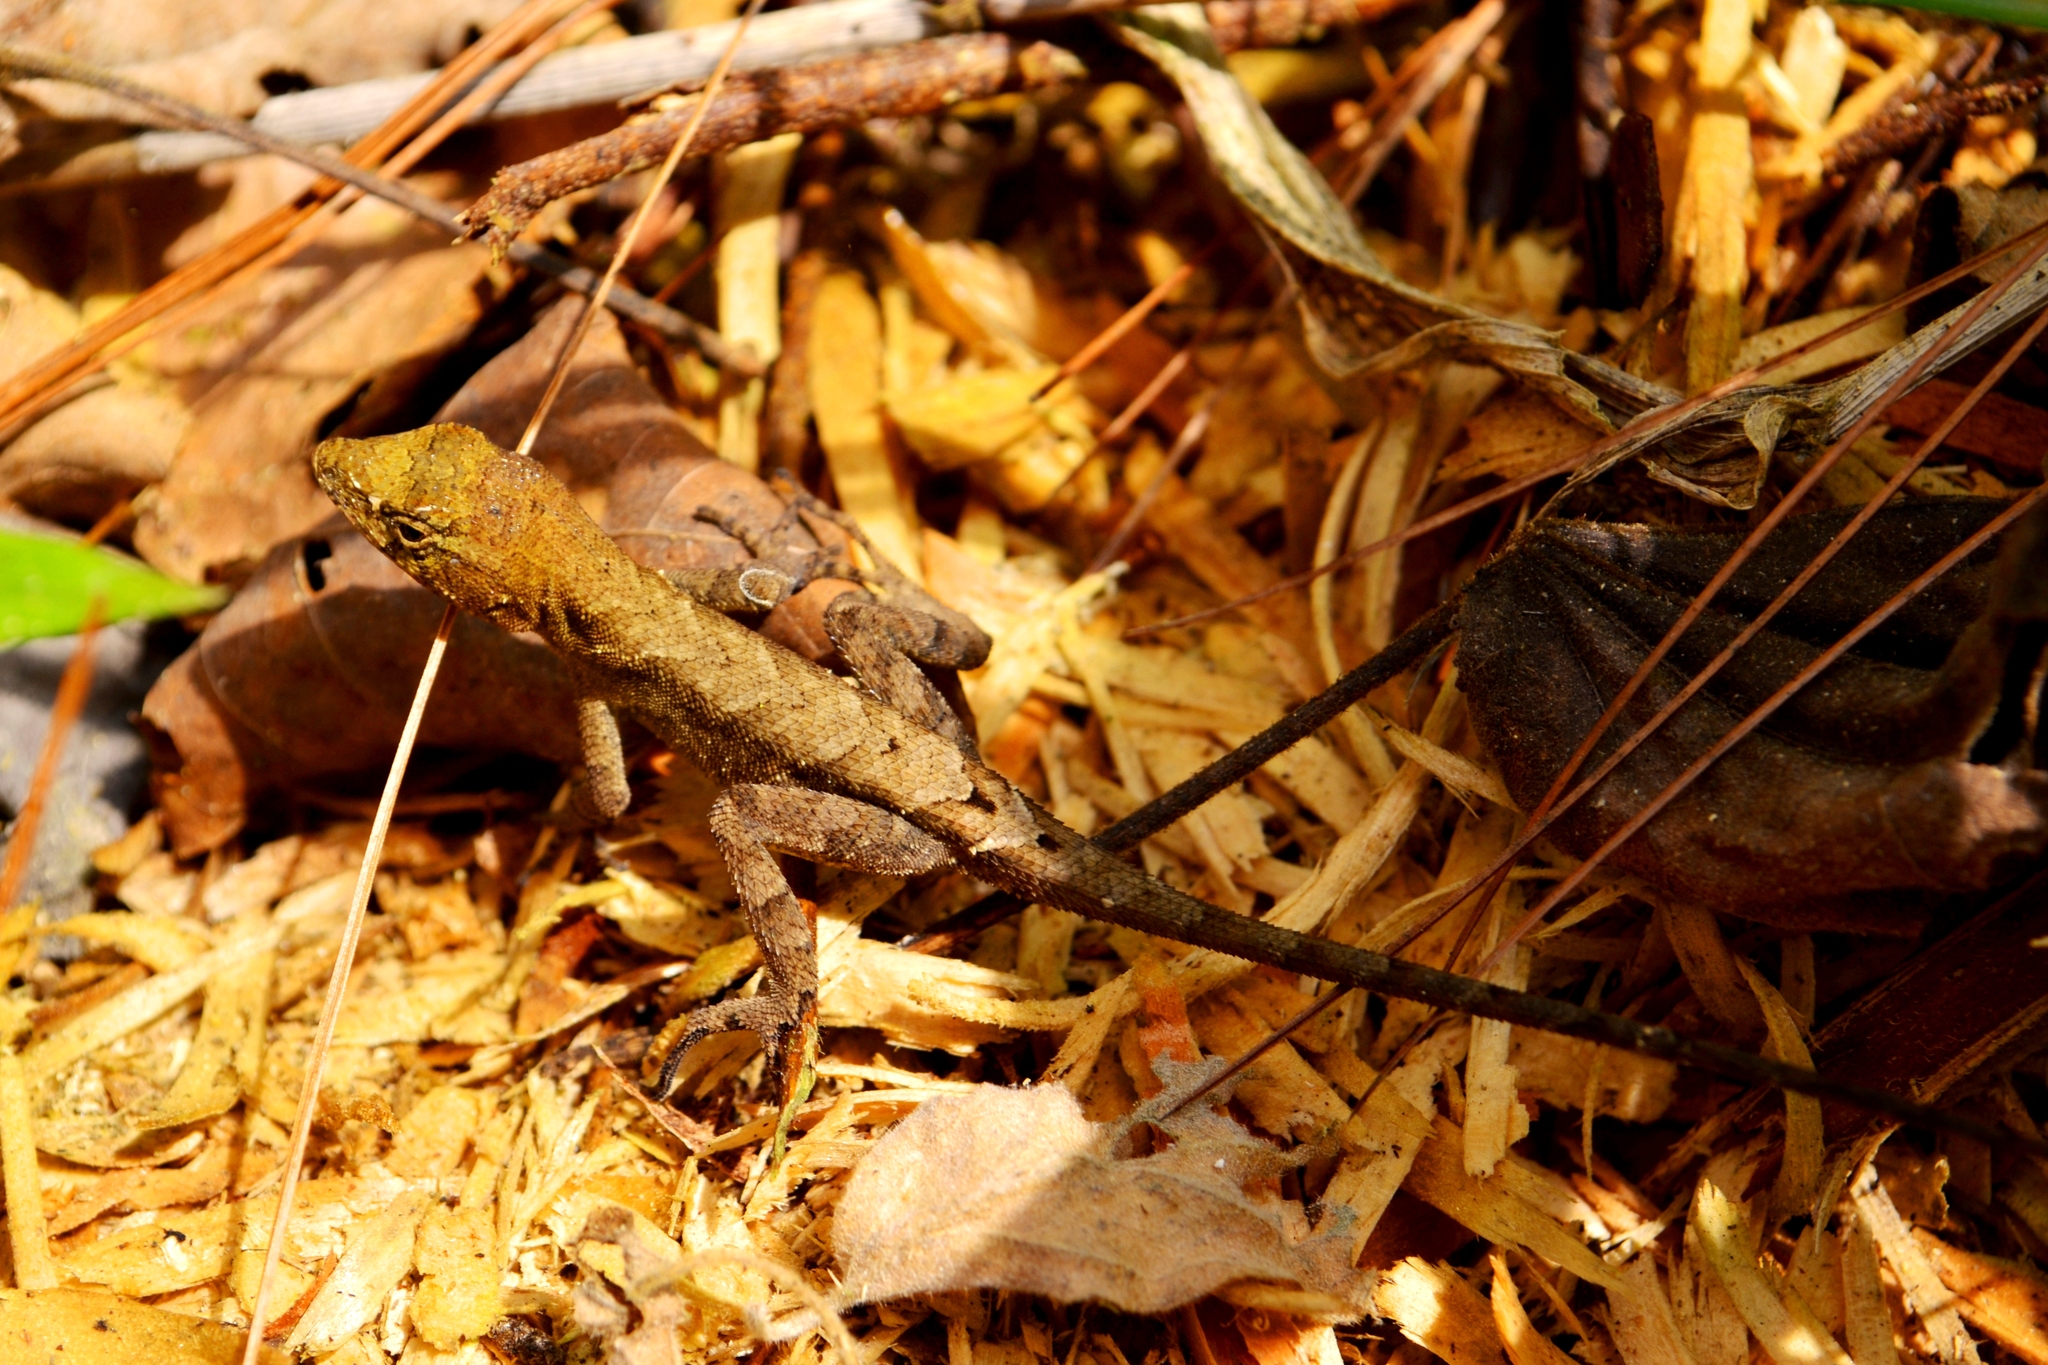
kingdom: Animalia
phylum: Chordata
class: Squamata
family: Dactyloidae
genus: Anolis
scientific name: Anolis spilorhipis
